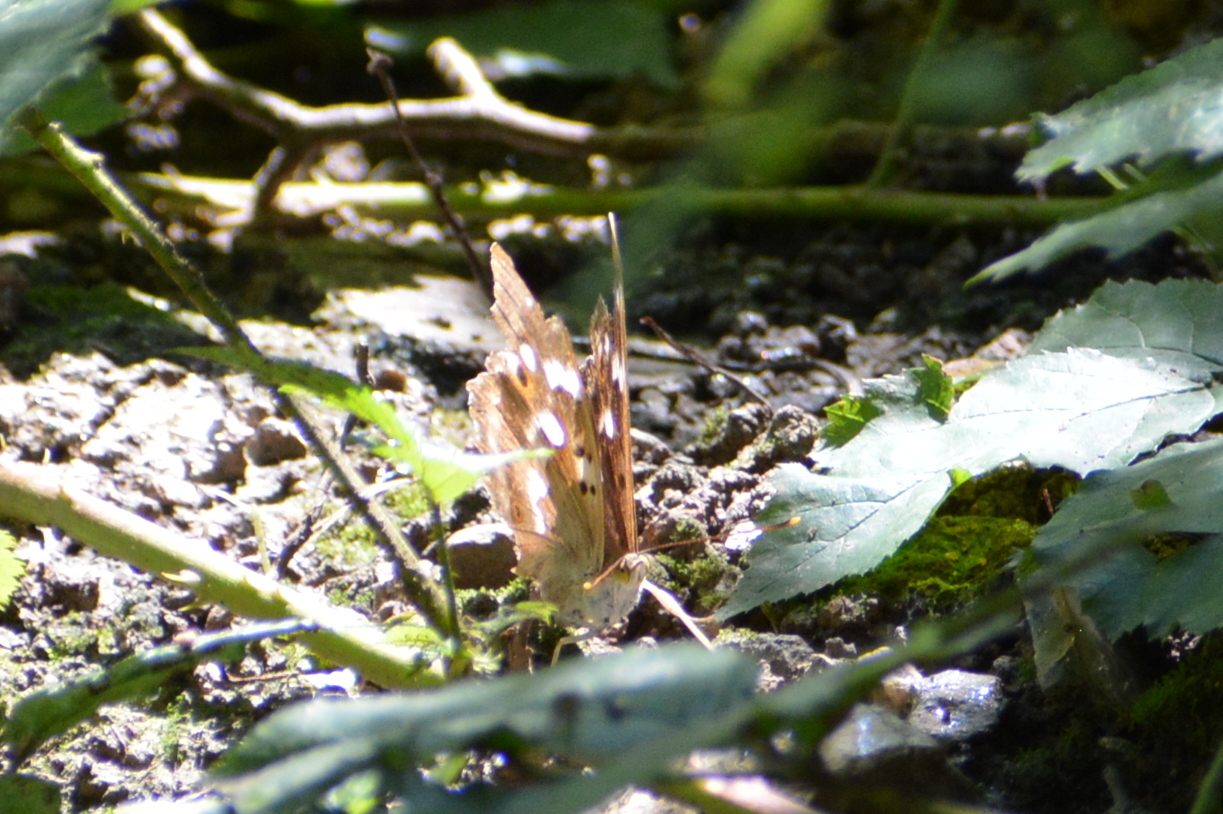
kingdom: Animalia
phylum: Arthropoda
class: Insecta
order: Lepidoptera
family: Nymphalidae
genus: Apatura
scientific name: Apatura ilia
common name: Lesser purple emperor
